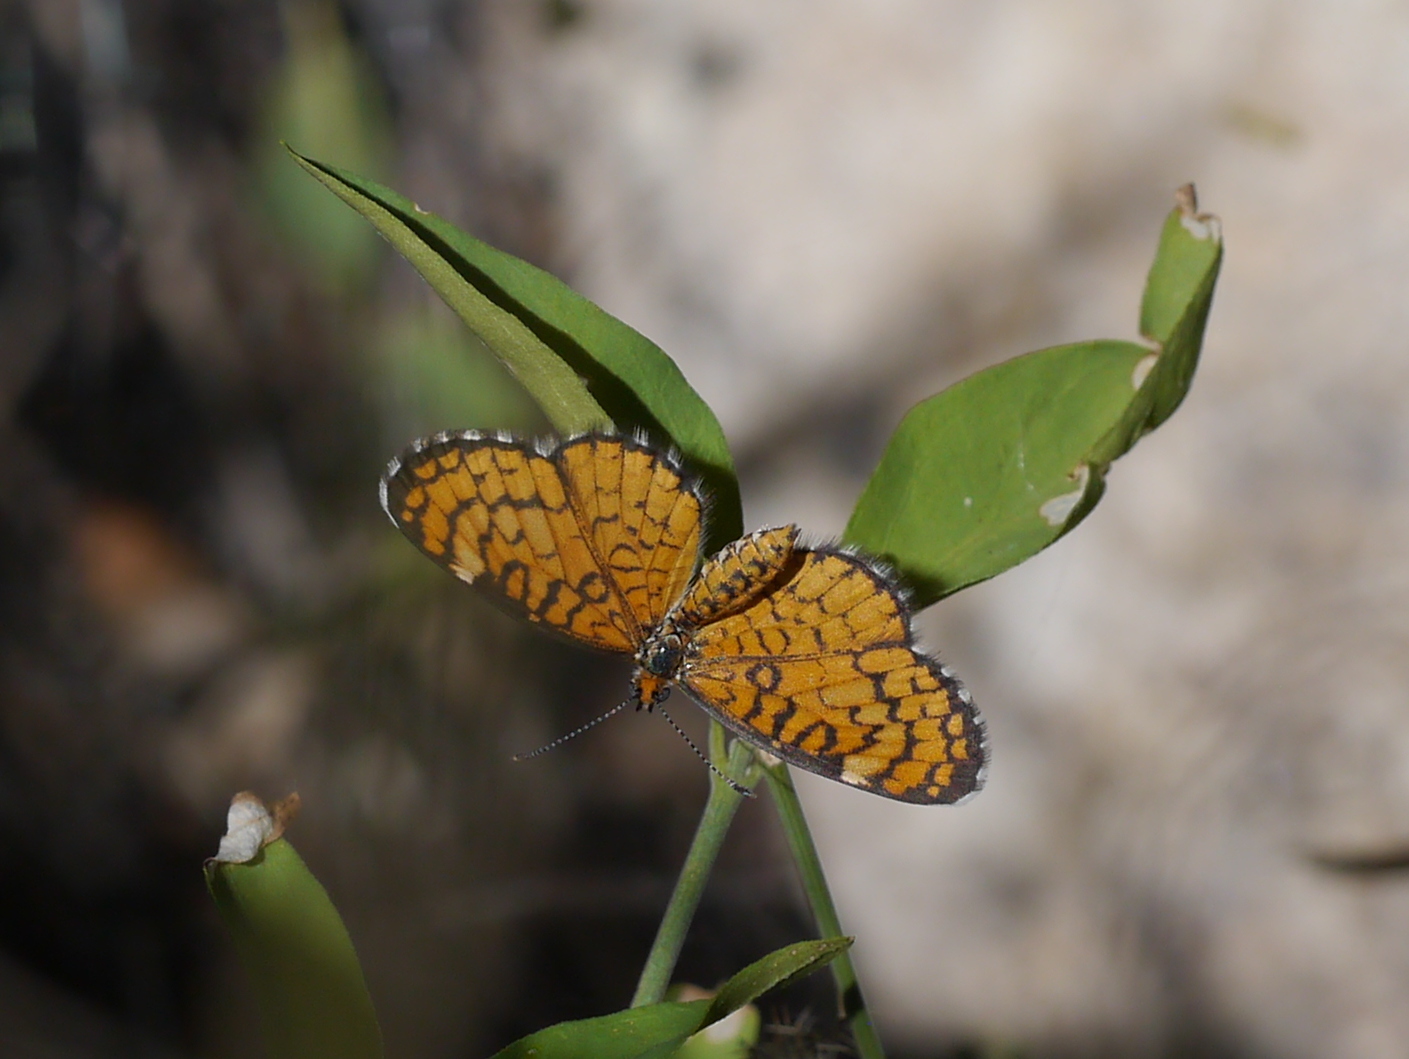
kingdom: Animalia
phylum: Arthropoda
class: Insecta
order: Lepidoptera
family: Nymphalidae
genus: Dymasia
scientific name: Dymasia dymas
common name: Tiny checkerspot
